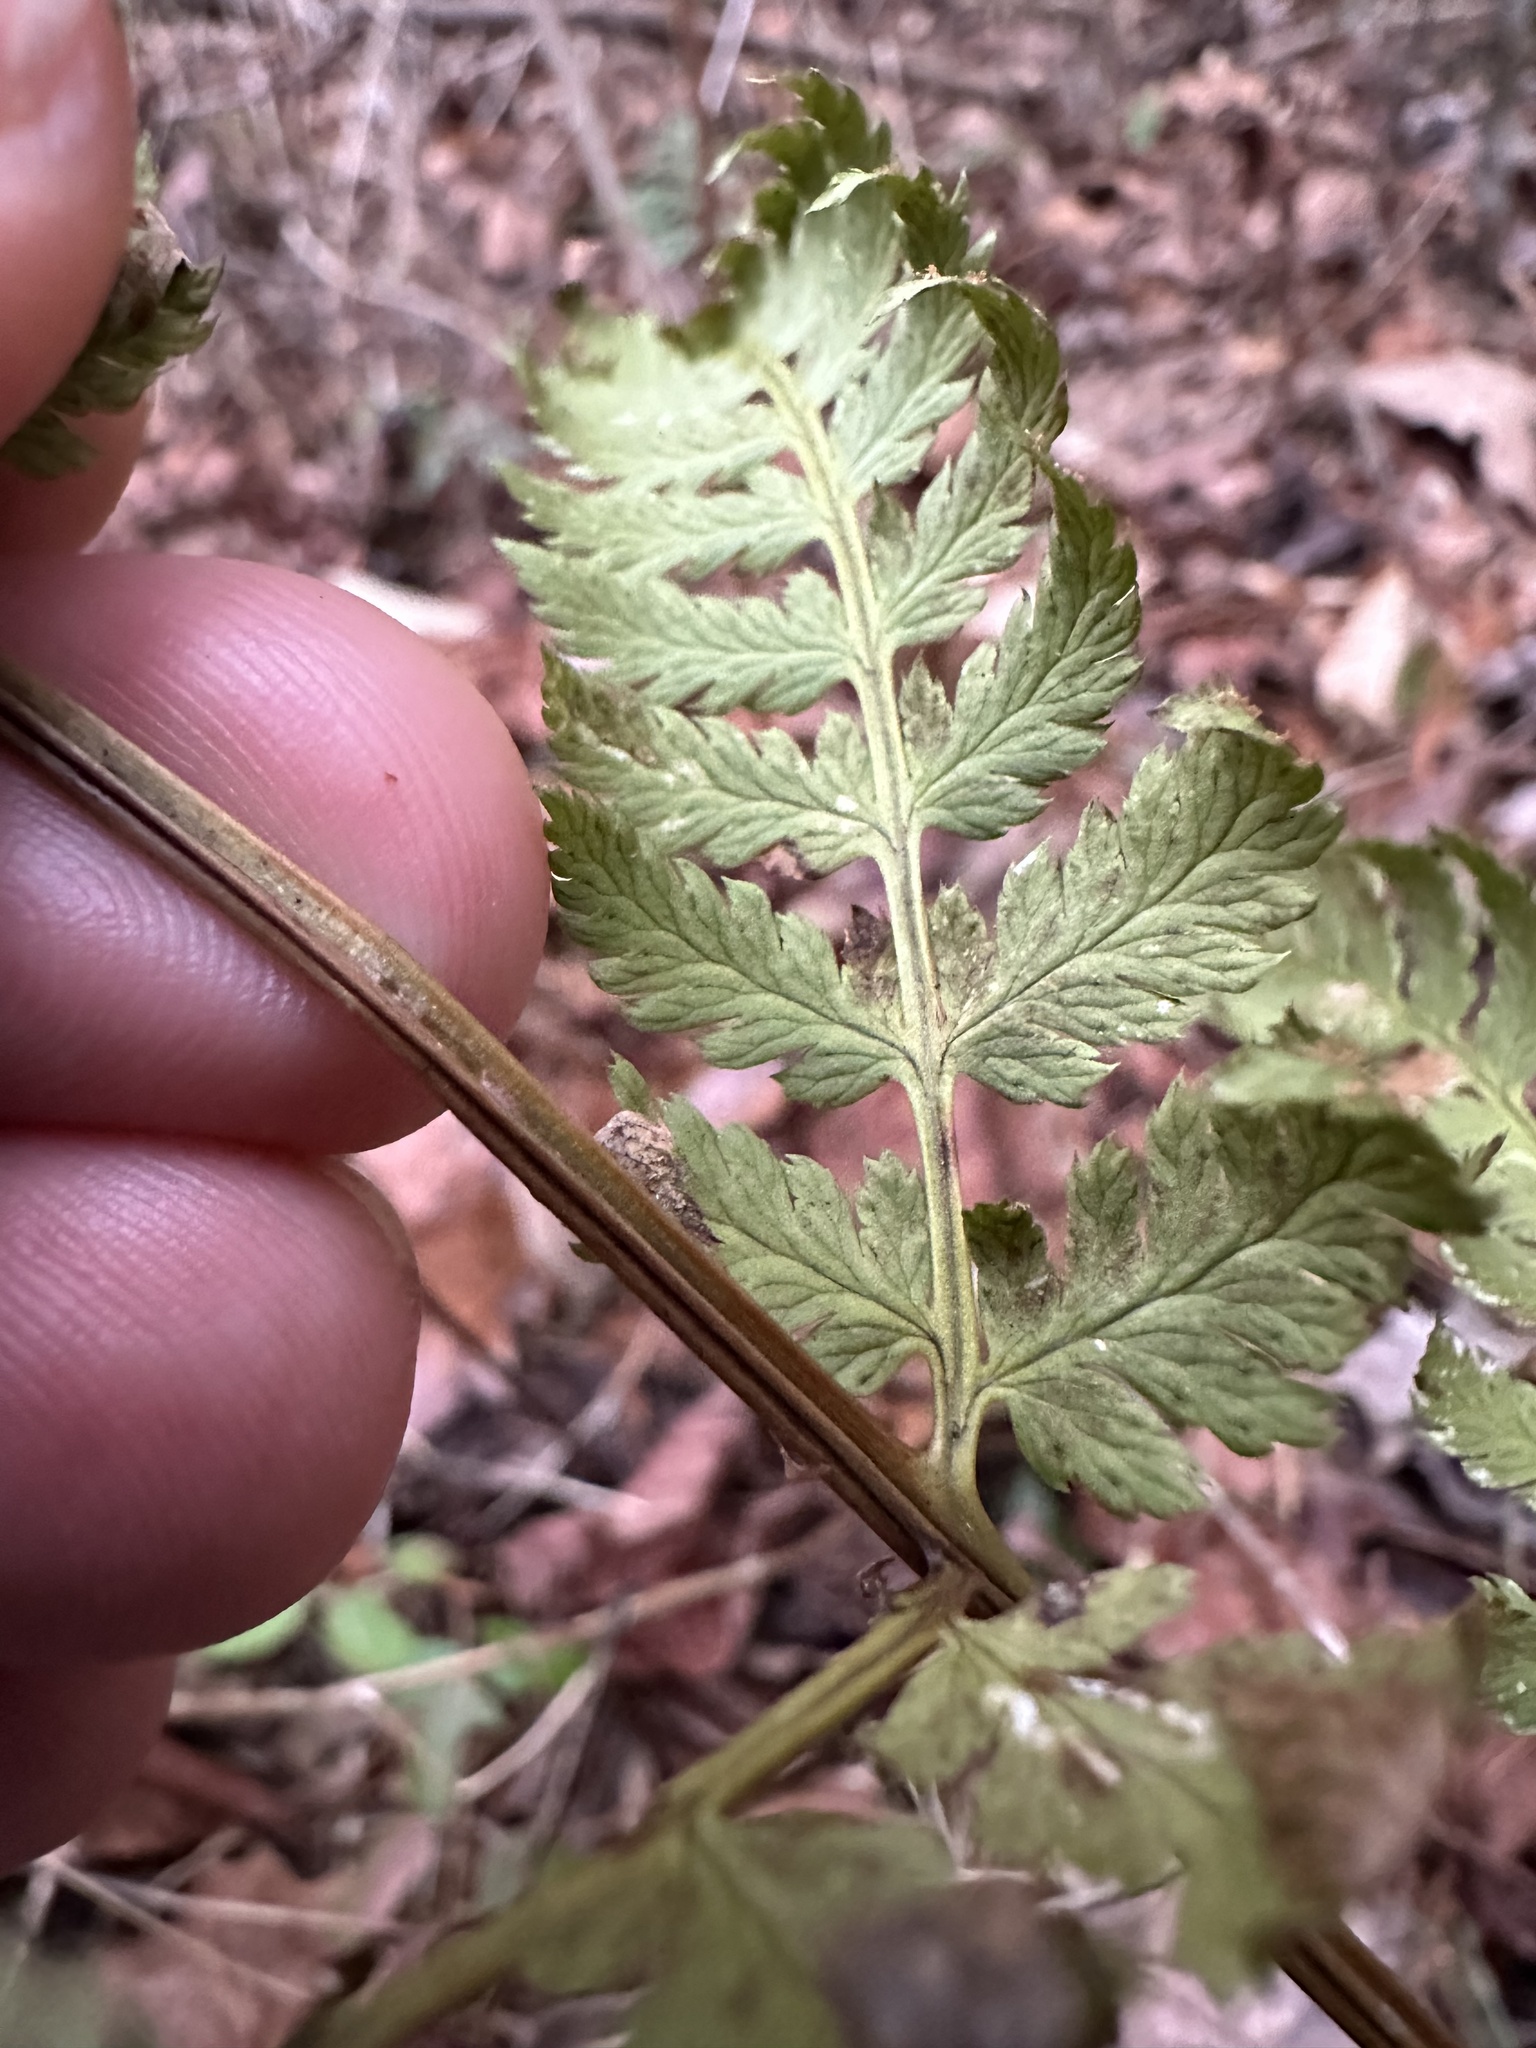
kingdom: Plantae
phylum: Tracheophyta
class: Polypodiopsida
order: Polypodiales
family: Dryopteridaceae
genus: Dryopteris
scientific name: Dryopteris intermedia
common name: Evergreen wood fern
